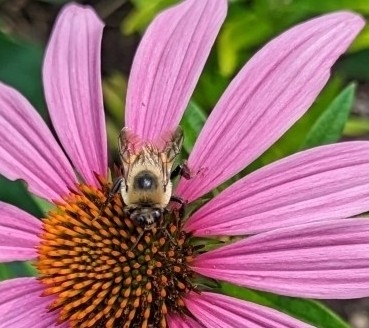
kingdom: Plantae
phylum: Tracheophyta
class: Magnoliopsida
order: Asterales
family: Asteraceae
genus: Echinacea
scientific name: Echinacea purpurea
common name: Broad-leaved purple coneflower
